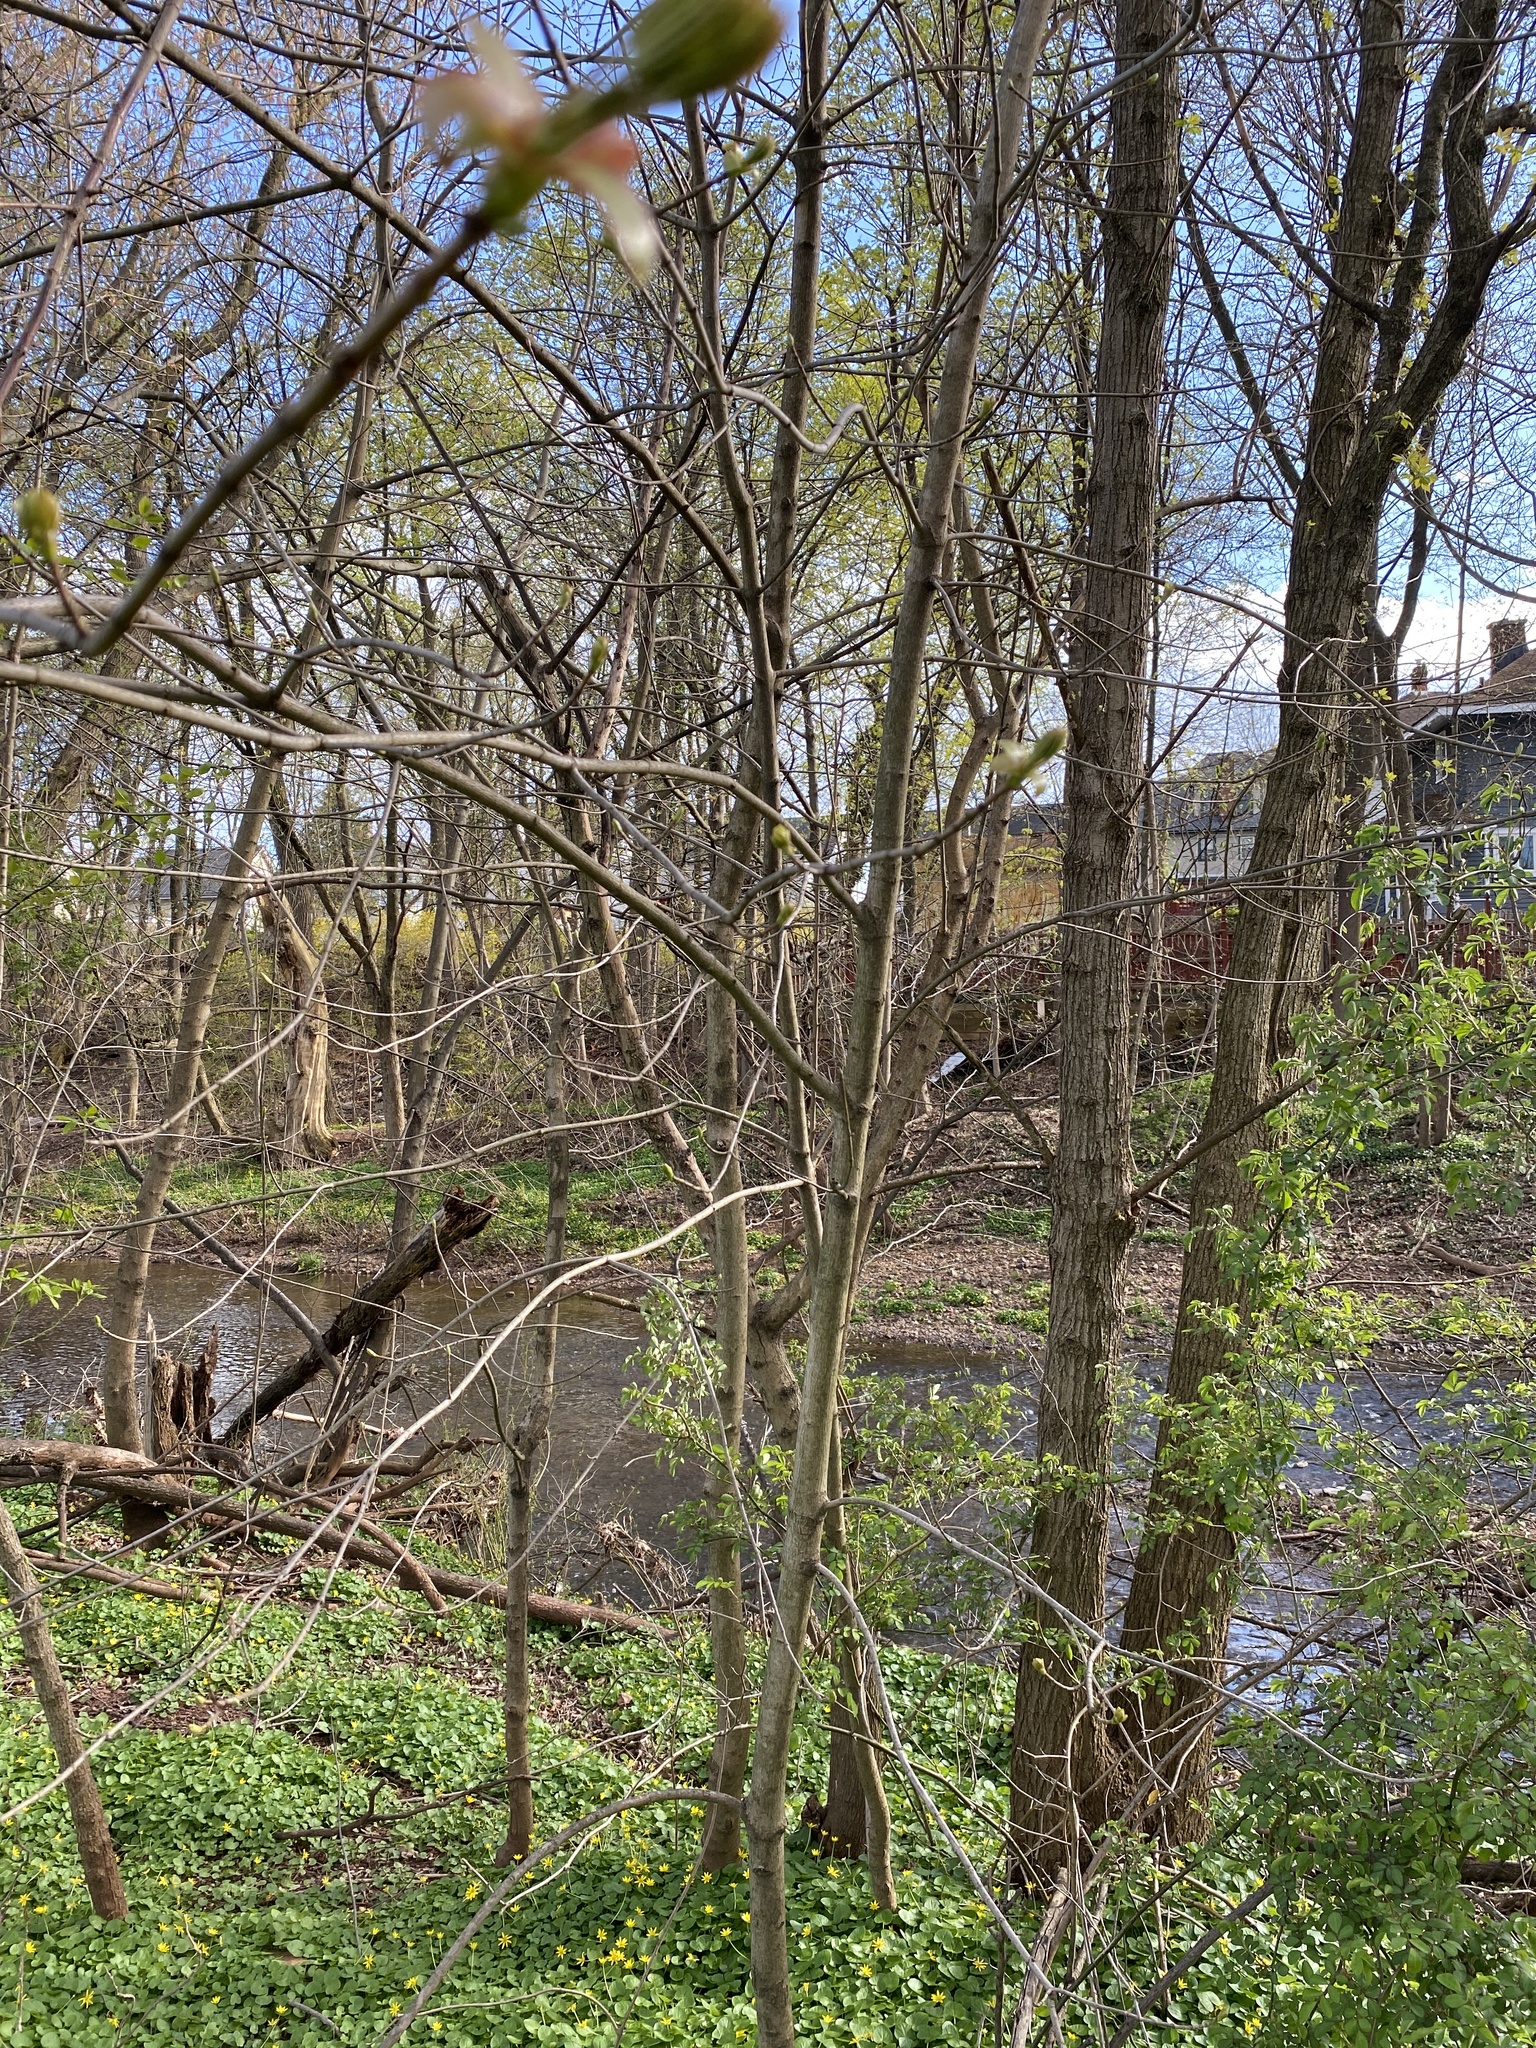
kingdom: Plantae
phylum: Tracheophyta
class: Magnoliopsida
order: Sapindales
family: Sapindaceae
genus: Acer
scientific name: Acer platanoides
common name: Norway maple
